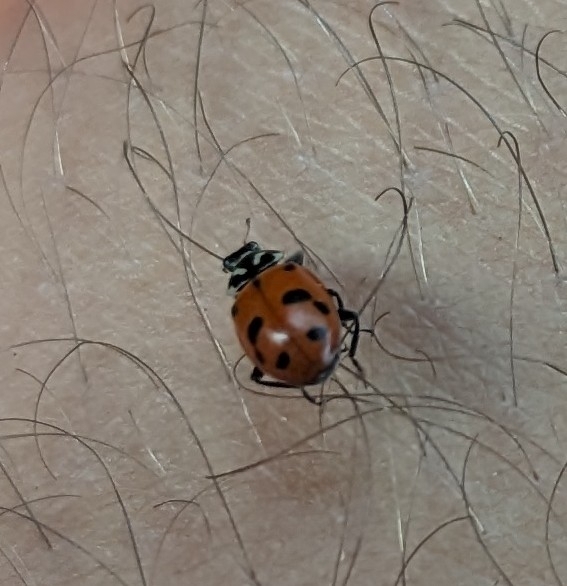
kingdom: Animalia
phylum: Arthropoda
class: Insecta
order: Coleoptera
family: Coccinellidae
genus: Hippodamia
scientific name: Hippodamia convergens
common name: Convergent lady beetle
